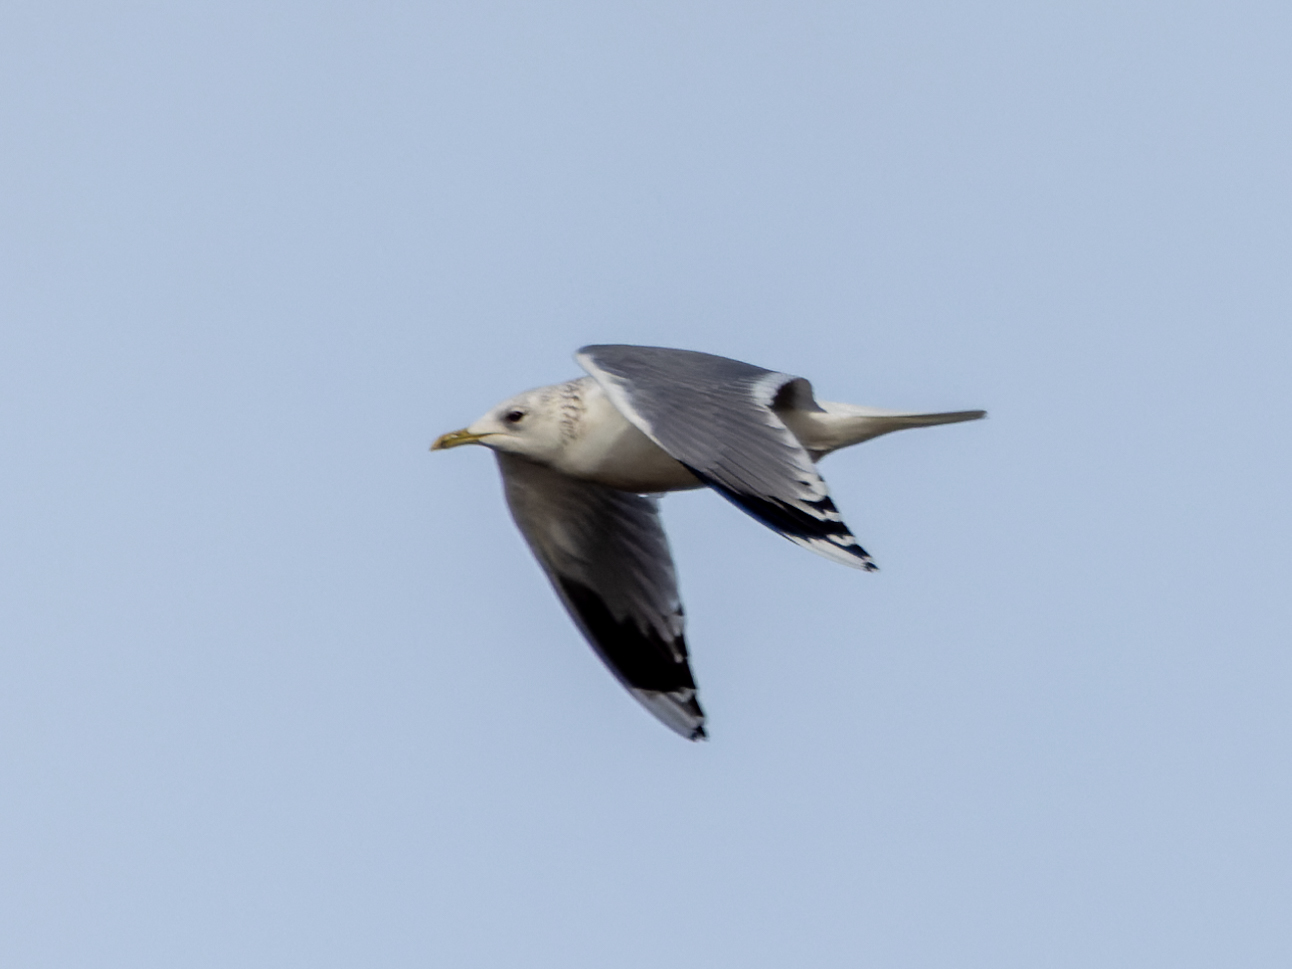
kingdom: Animalia
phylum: Chordata
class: Aves
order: Charadriiformes
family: Laridae
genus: Larus
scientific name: Larus canus
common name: Mew gull
